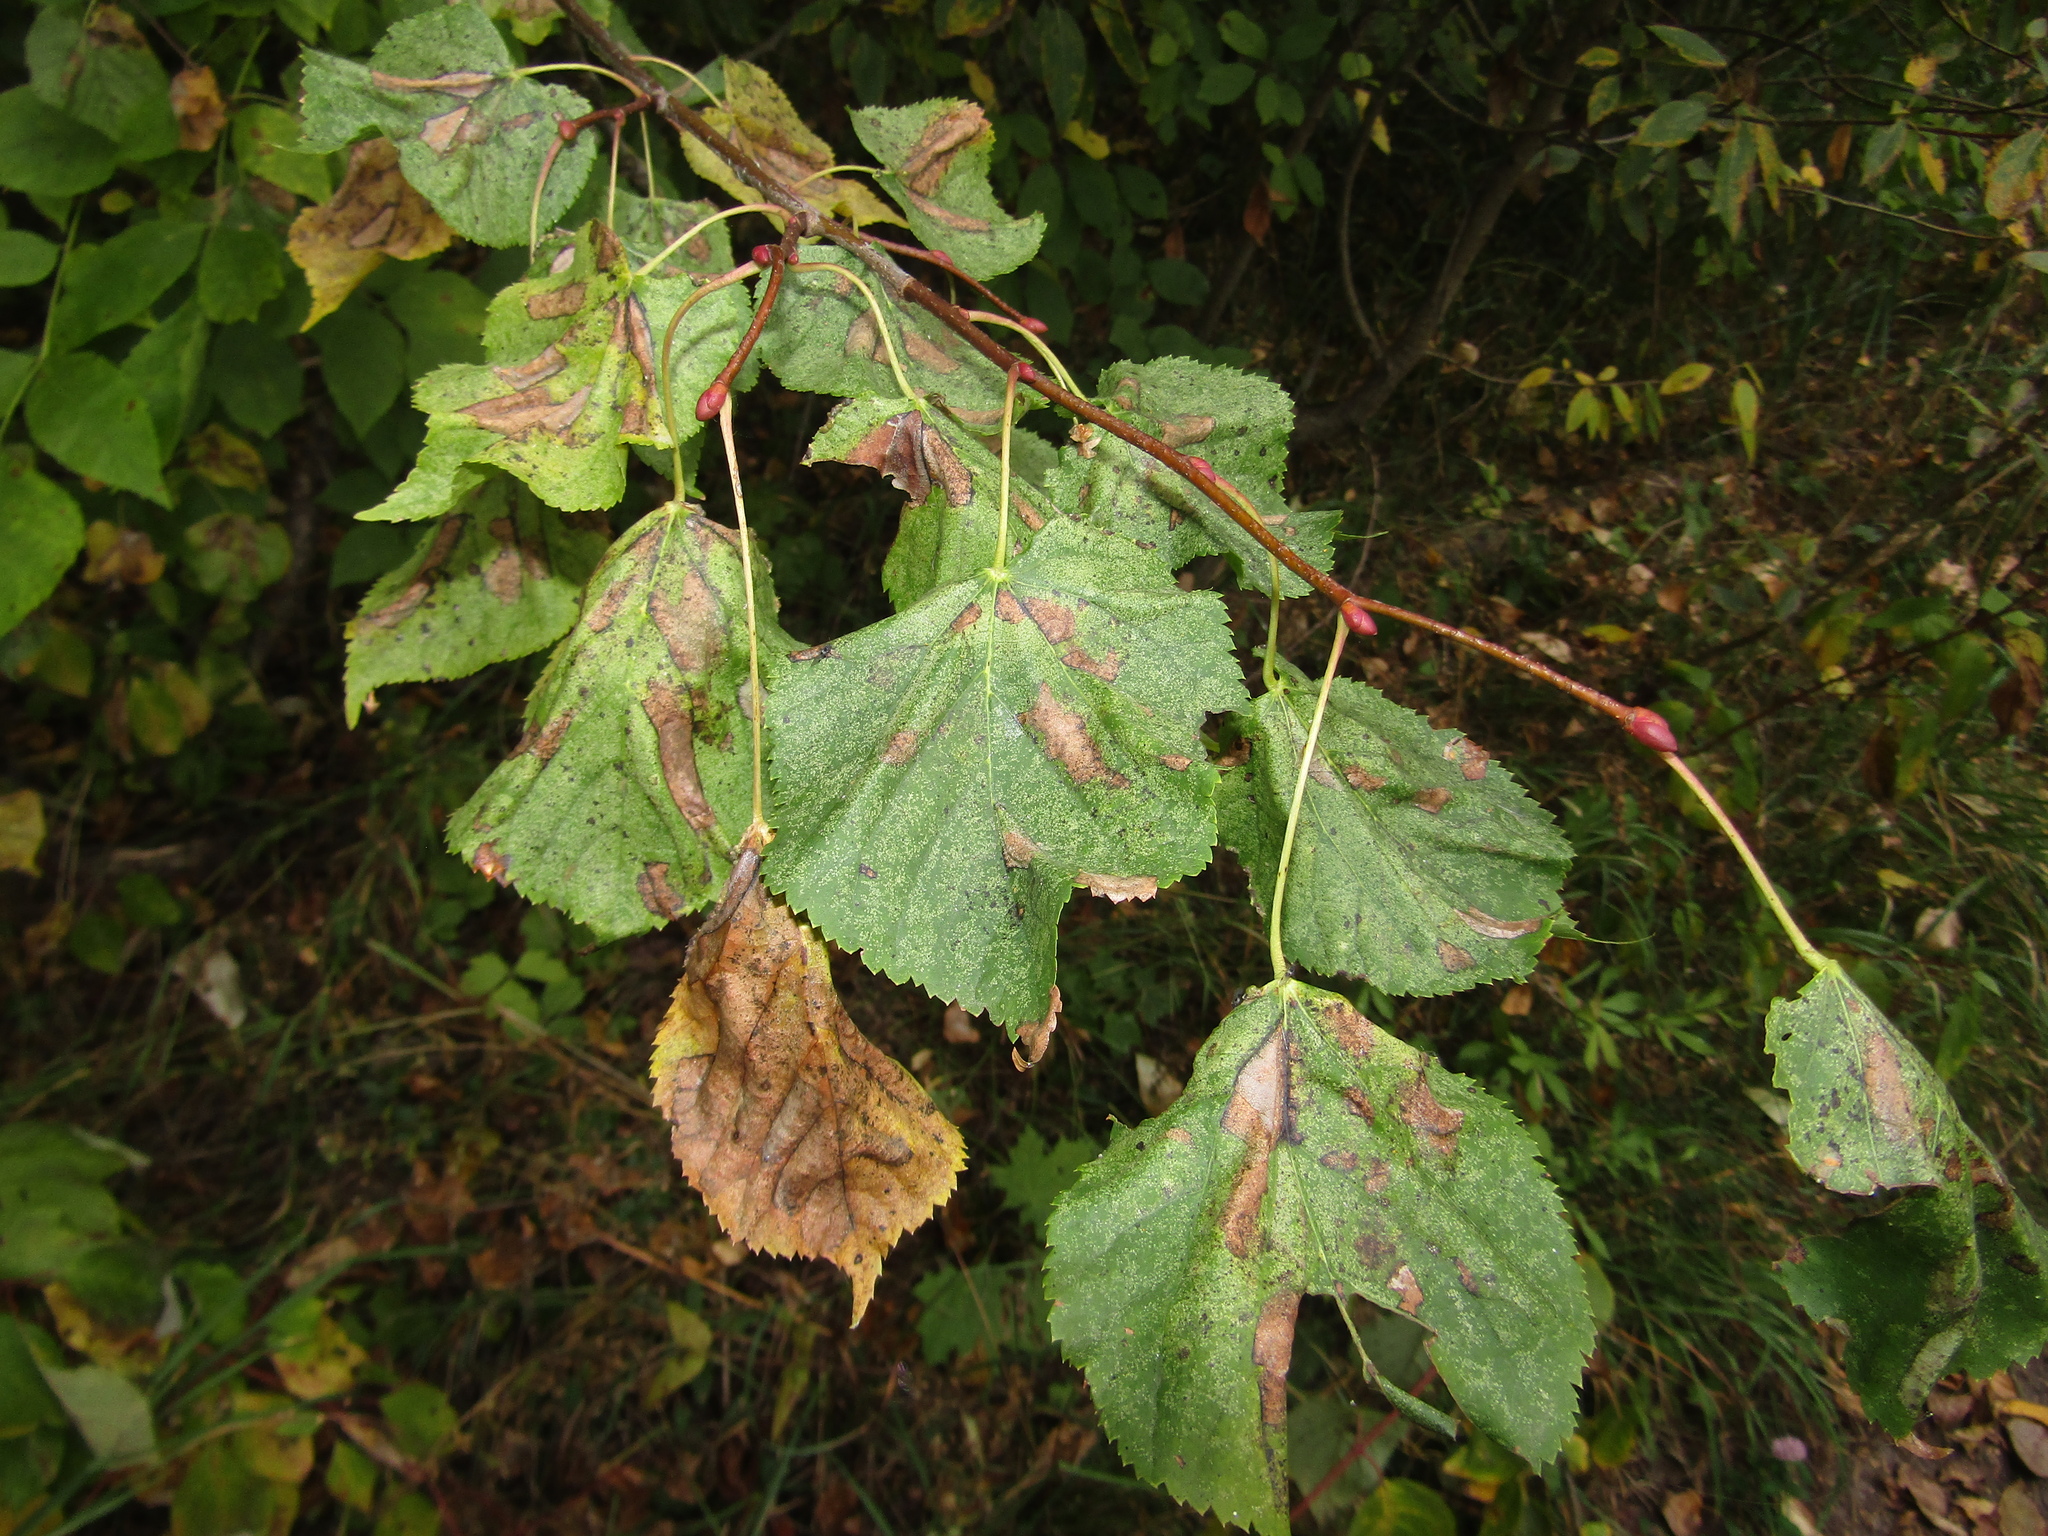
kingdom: Plantae
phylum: Tracheophyta
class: Magnoliopsida
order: Malvales
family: Malvaceae
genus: Tilia
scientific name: Tilia cordata
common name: Small-leaved lime
